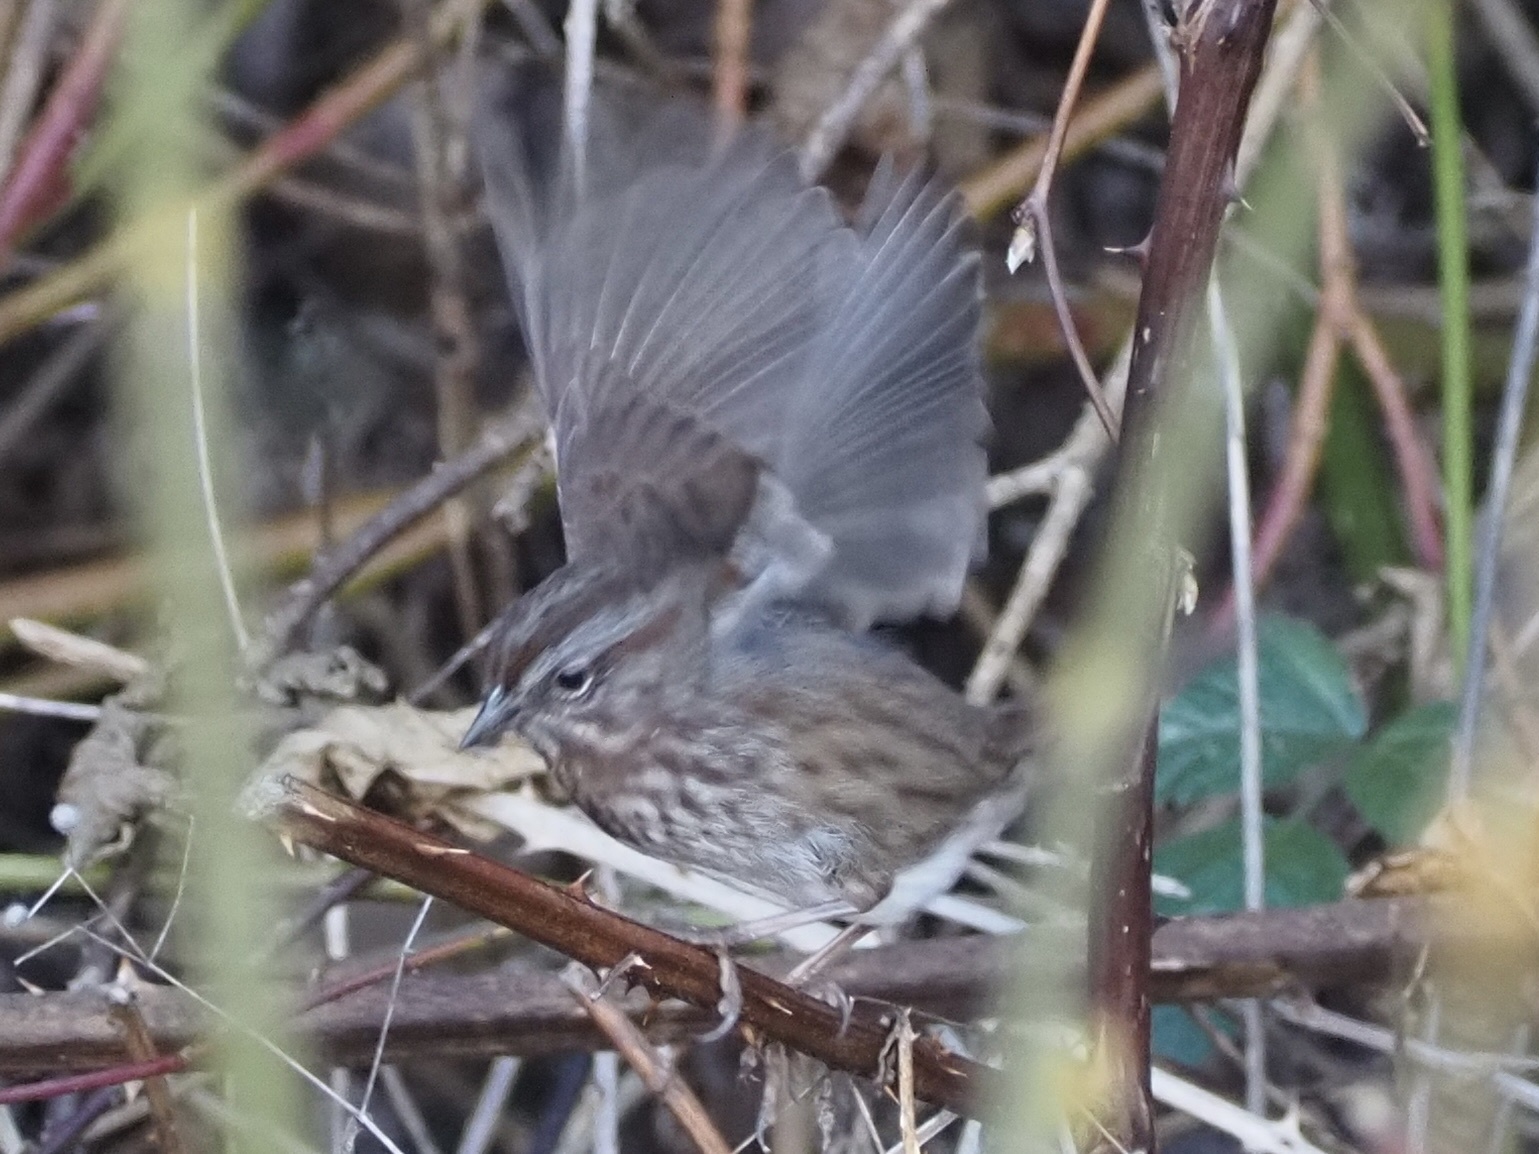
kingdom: Animalia
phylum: Chordata
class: Aves
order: Passeriformes
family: Passerellidae
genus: Melospiza
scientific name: Melospiza melodia
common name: Song sparrow
